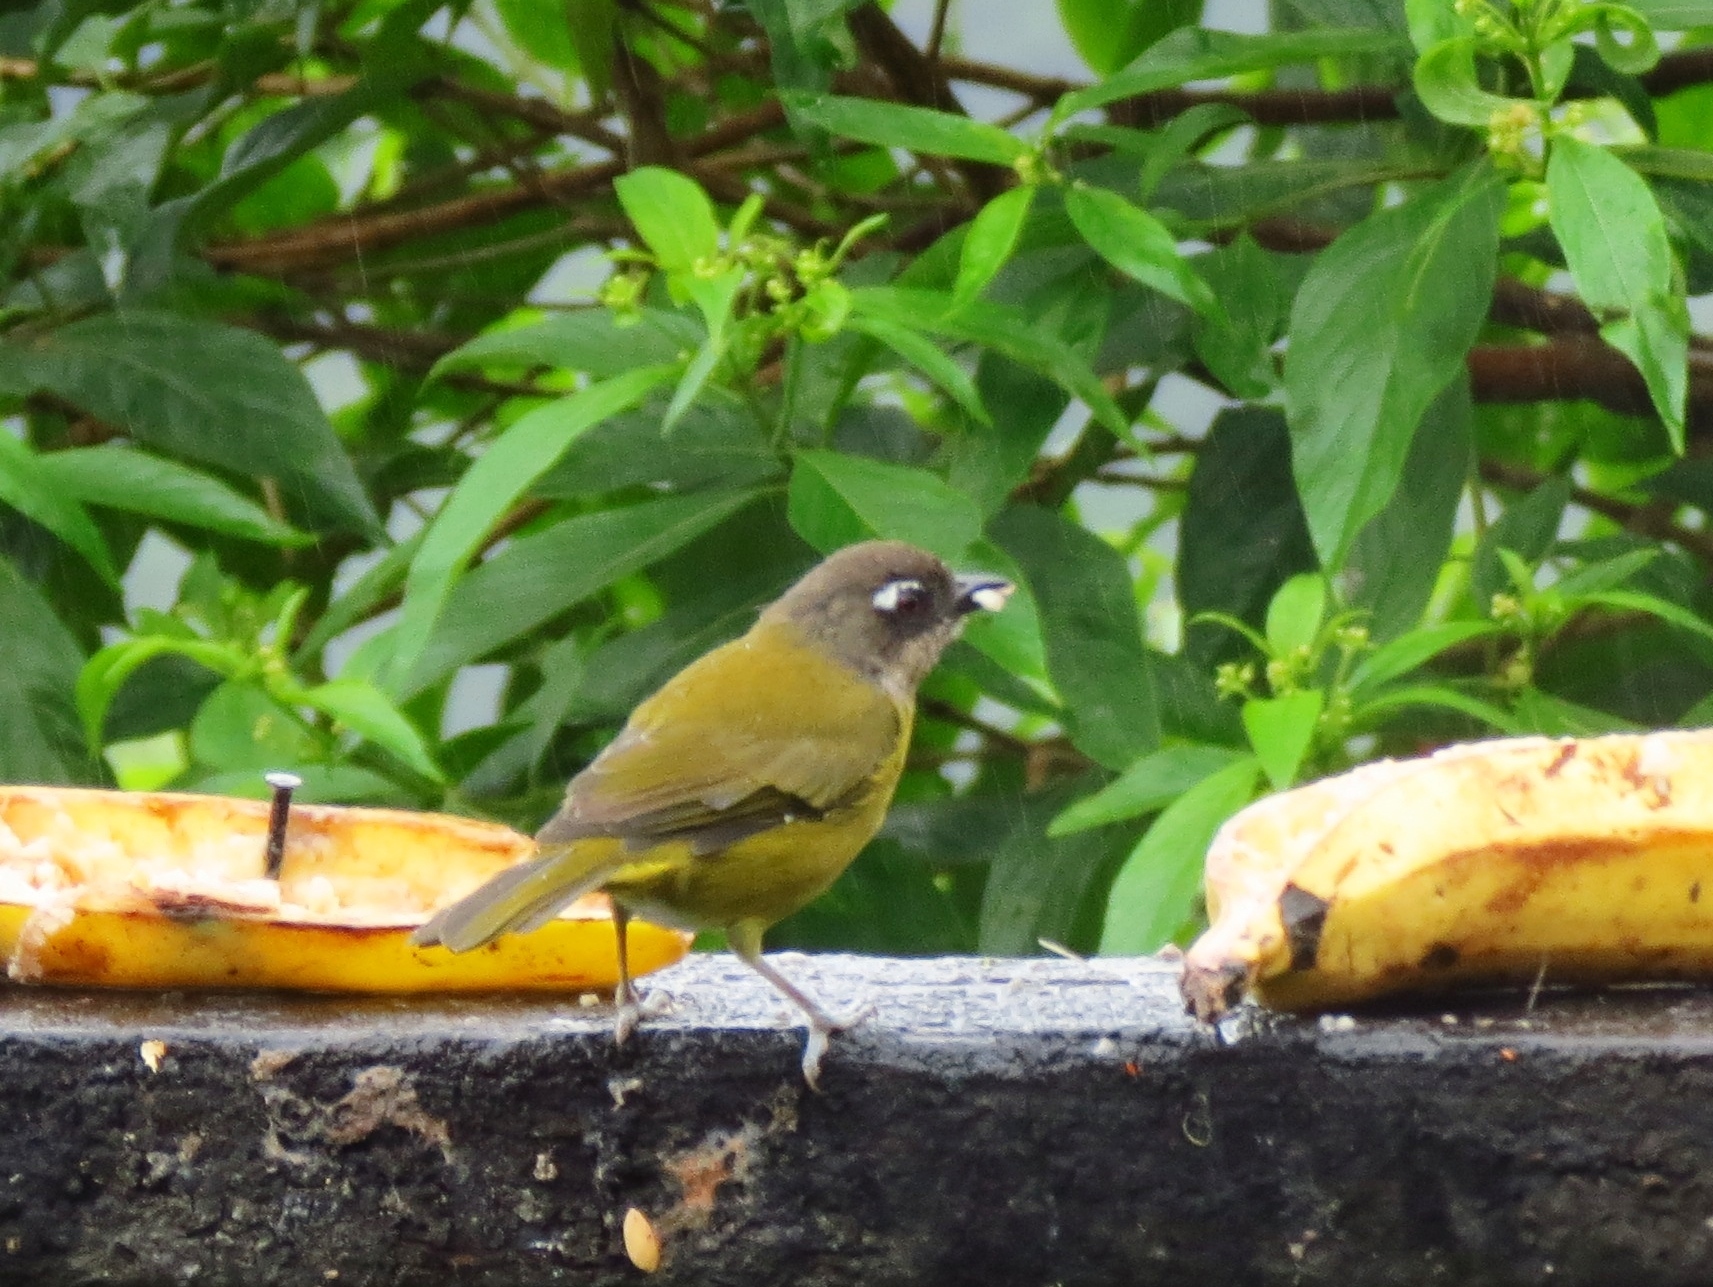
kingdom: Animalia
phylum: Chordata
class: Aves
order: Passeriformes
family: Passerellidae
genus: Chlorospingus
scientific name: Chlorospingus flavopectus
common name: Common chlorospingus
